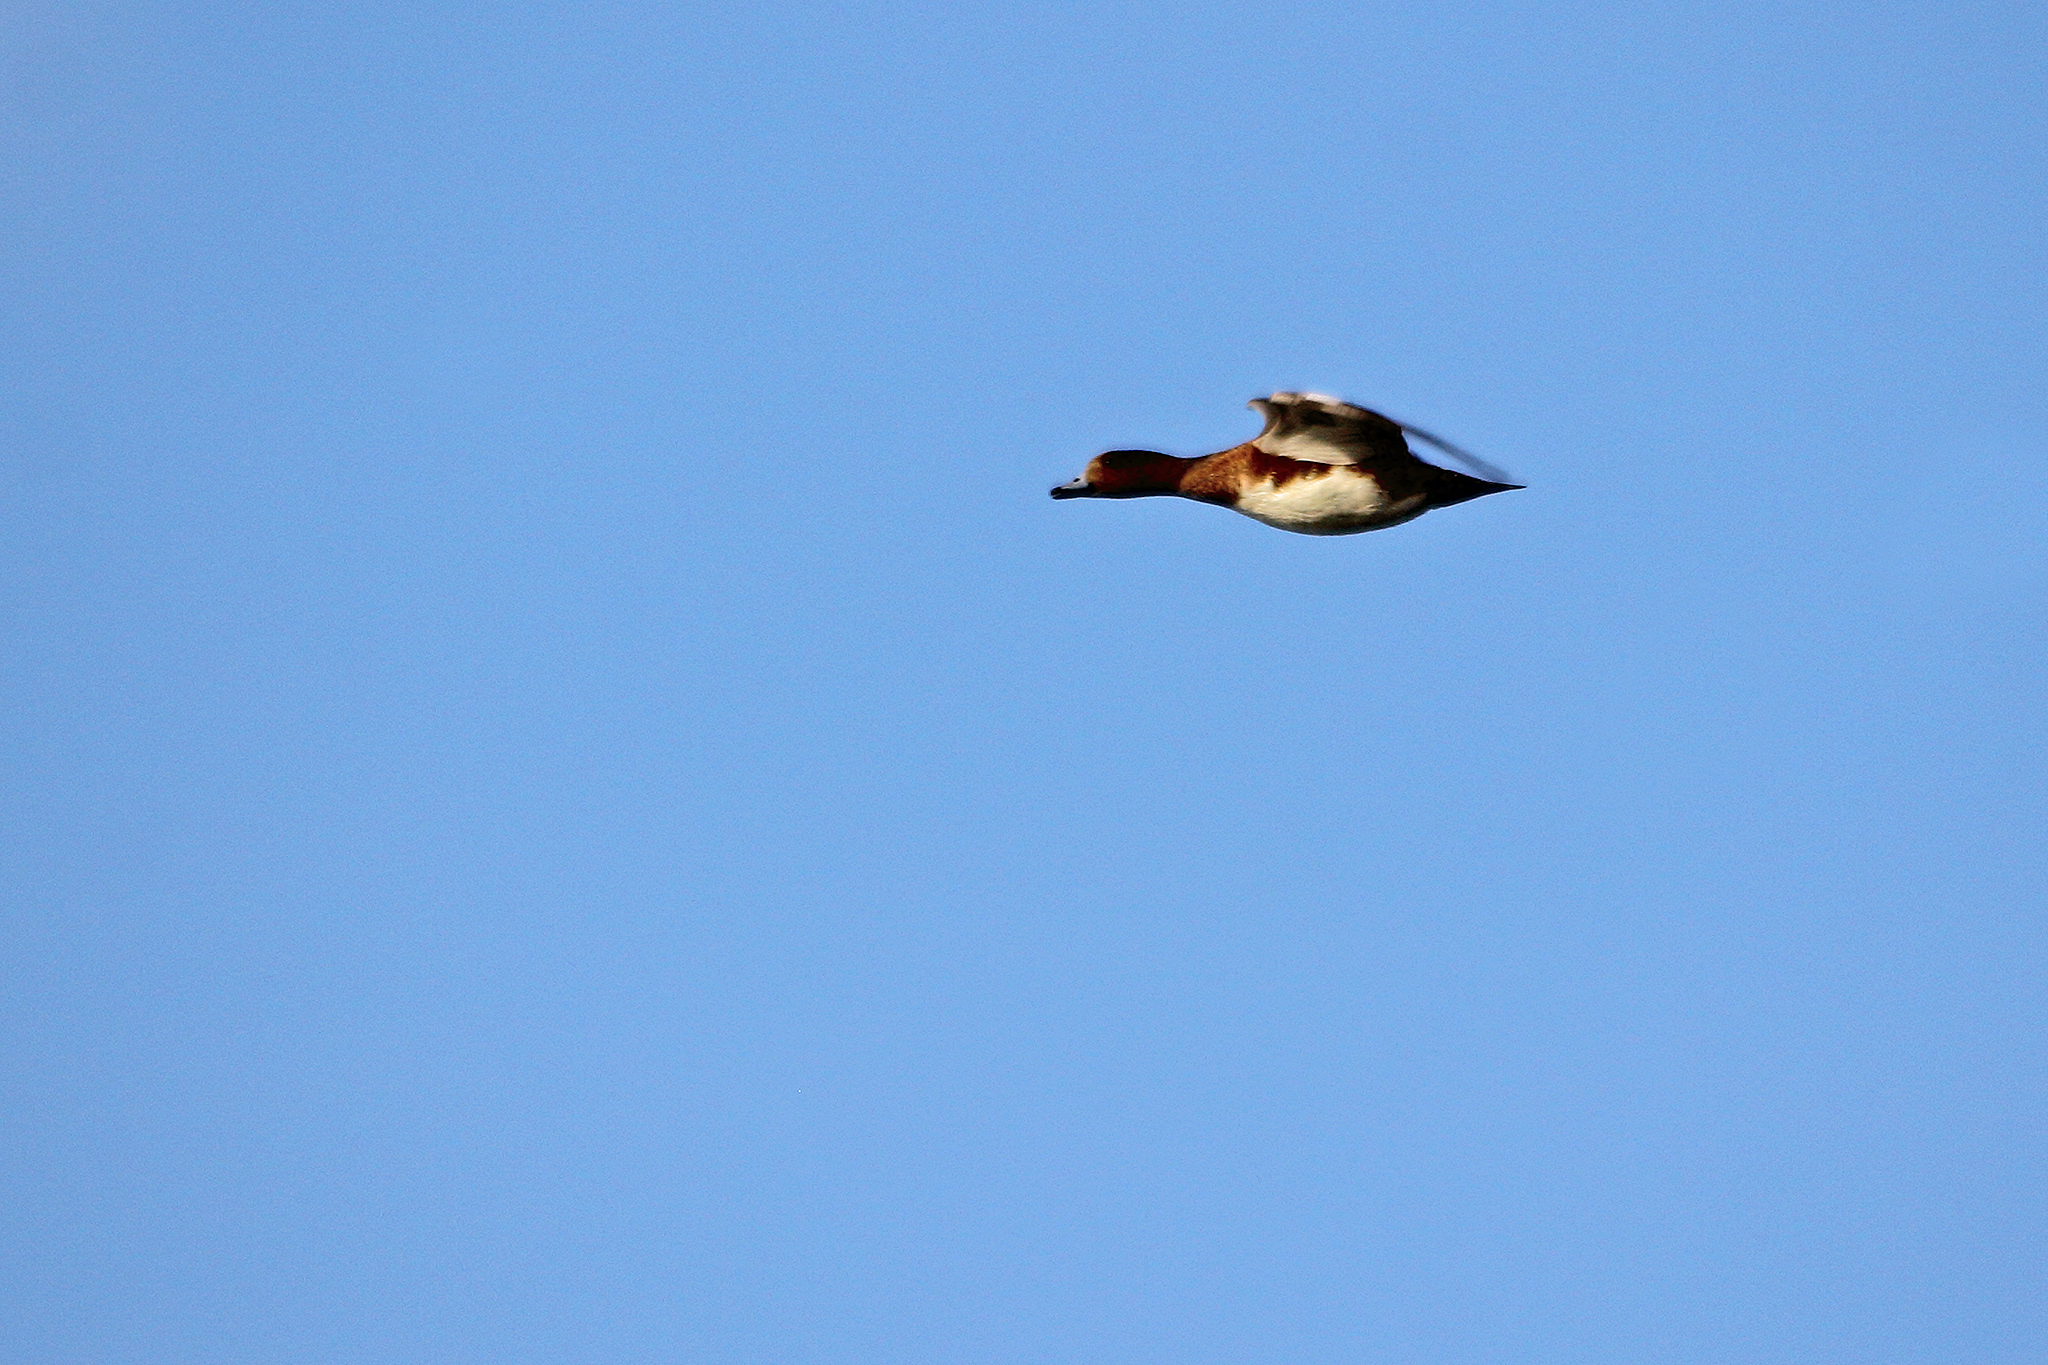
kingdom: Animalia
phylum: Chordata
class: Aves
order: Anseriformes
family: Anatidae
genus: Mareca
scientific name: Mareca penelope
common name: Eurasian wigeon
